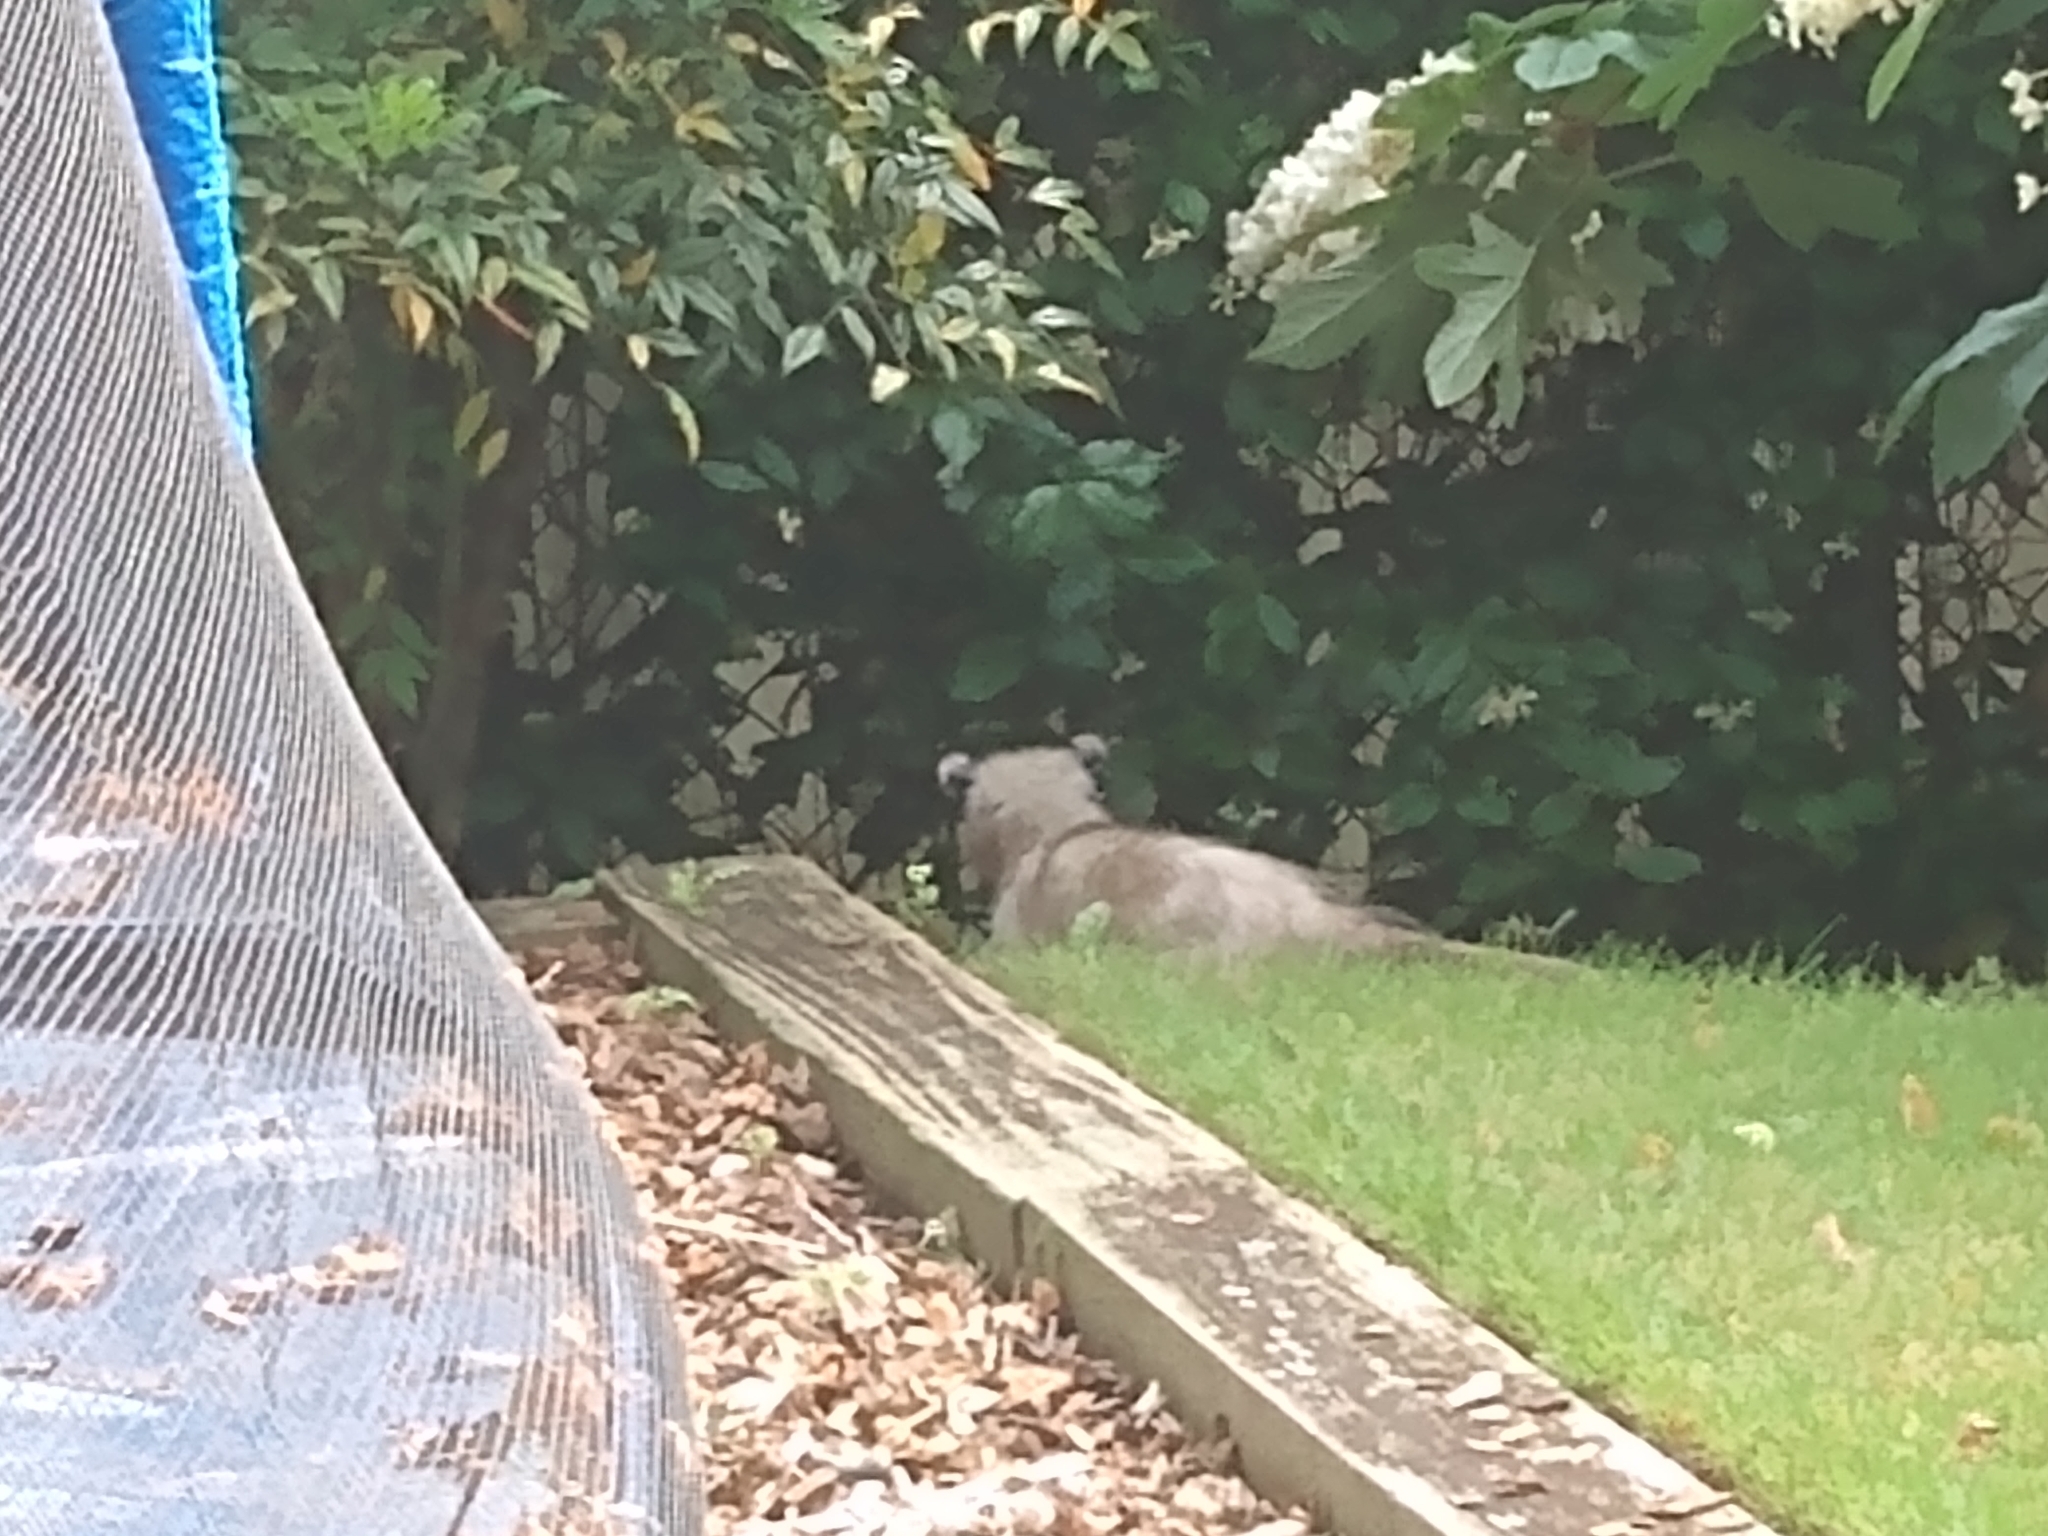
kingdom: Animalia
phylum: Chordata
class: Mammalia
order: Didelphimorphia
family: Didelphidae
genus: Didelphis
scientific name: Didelphis virginiana
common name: Virginia opossum
